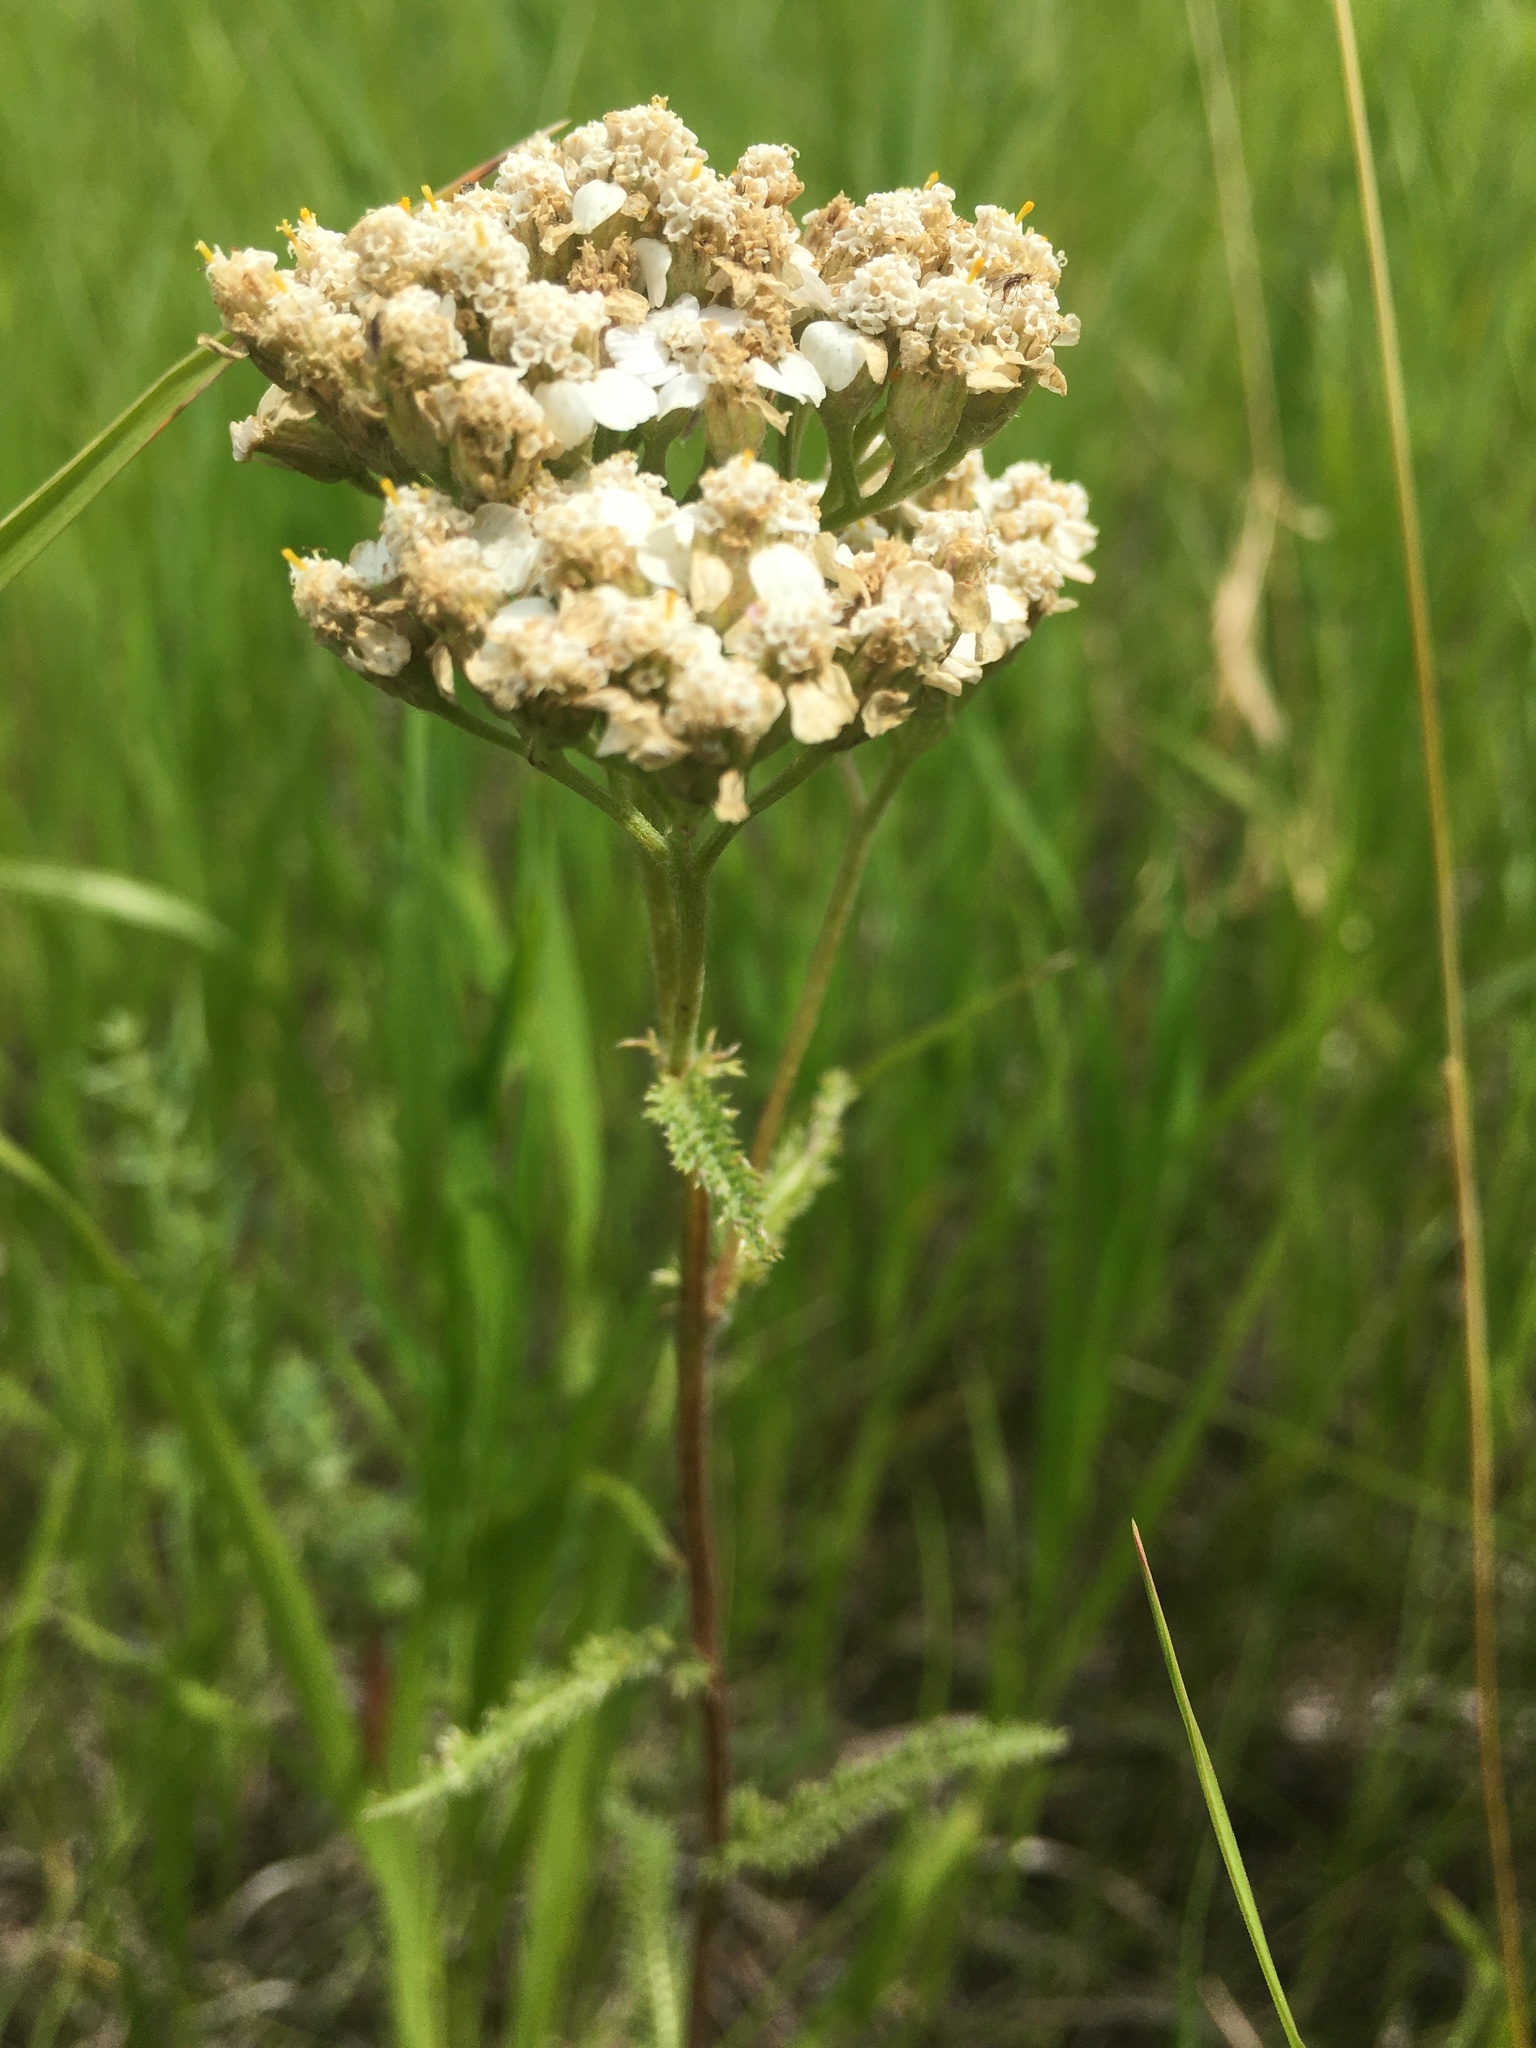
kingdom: Plantae
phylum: Tracheophyta
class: Magnoliopsida
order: Asterales
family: Asteraceae
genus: Achillea
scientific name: Achillea millefolium
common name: Yarrow
